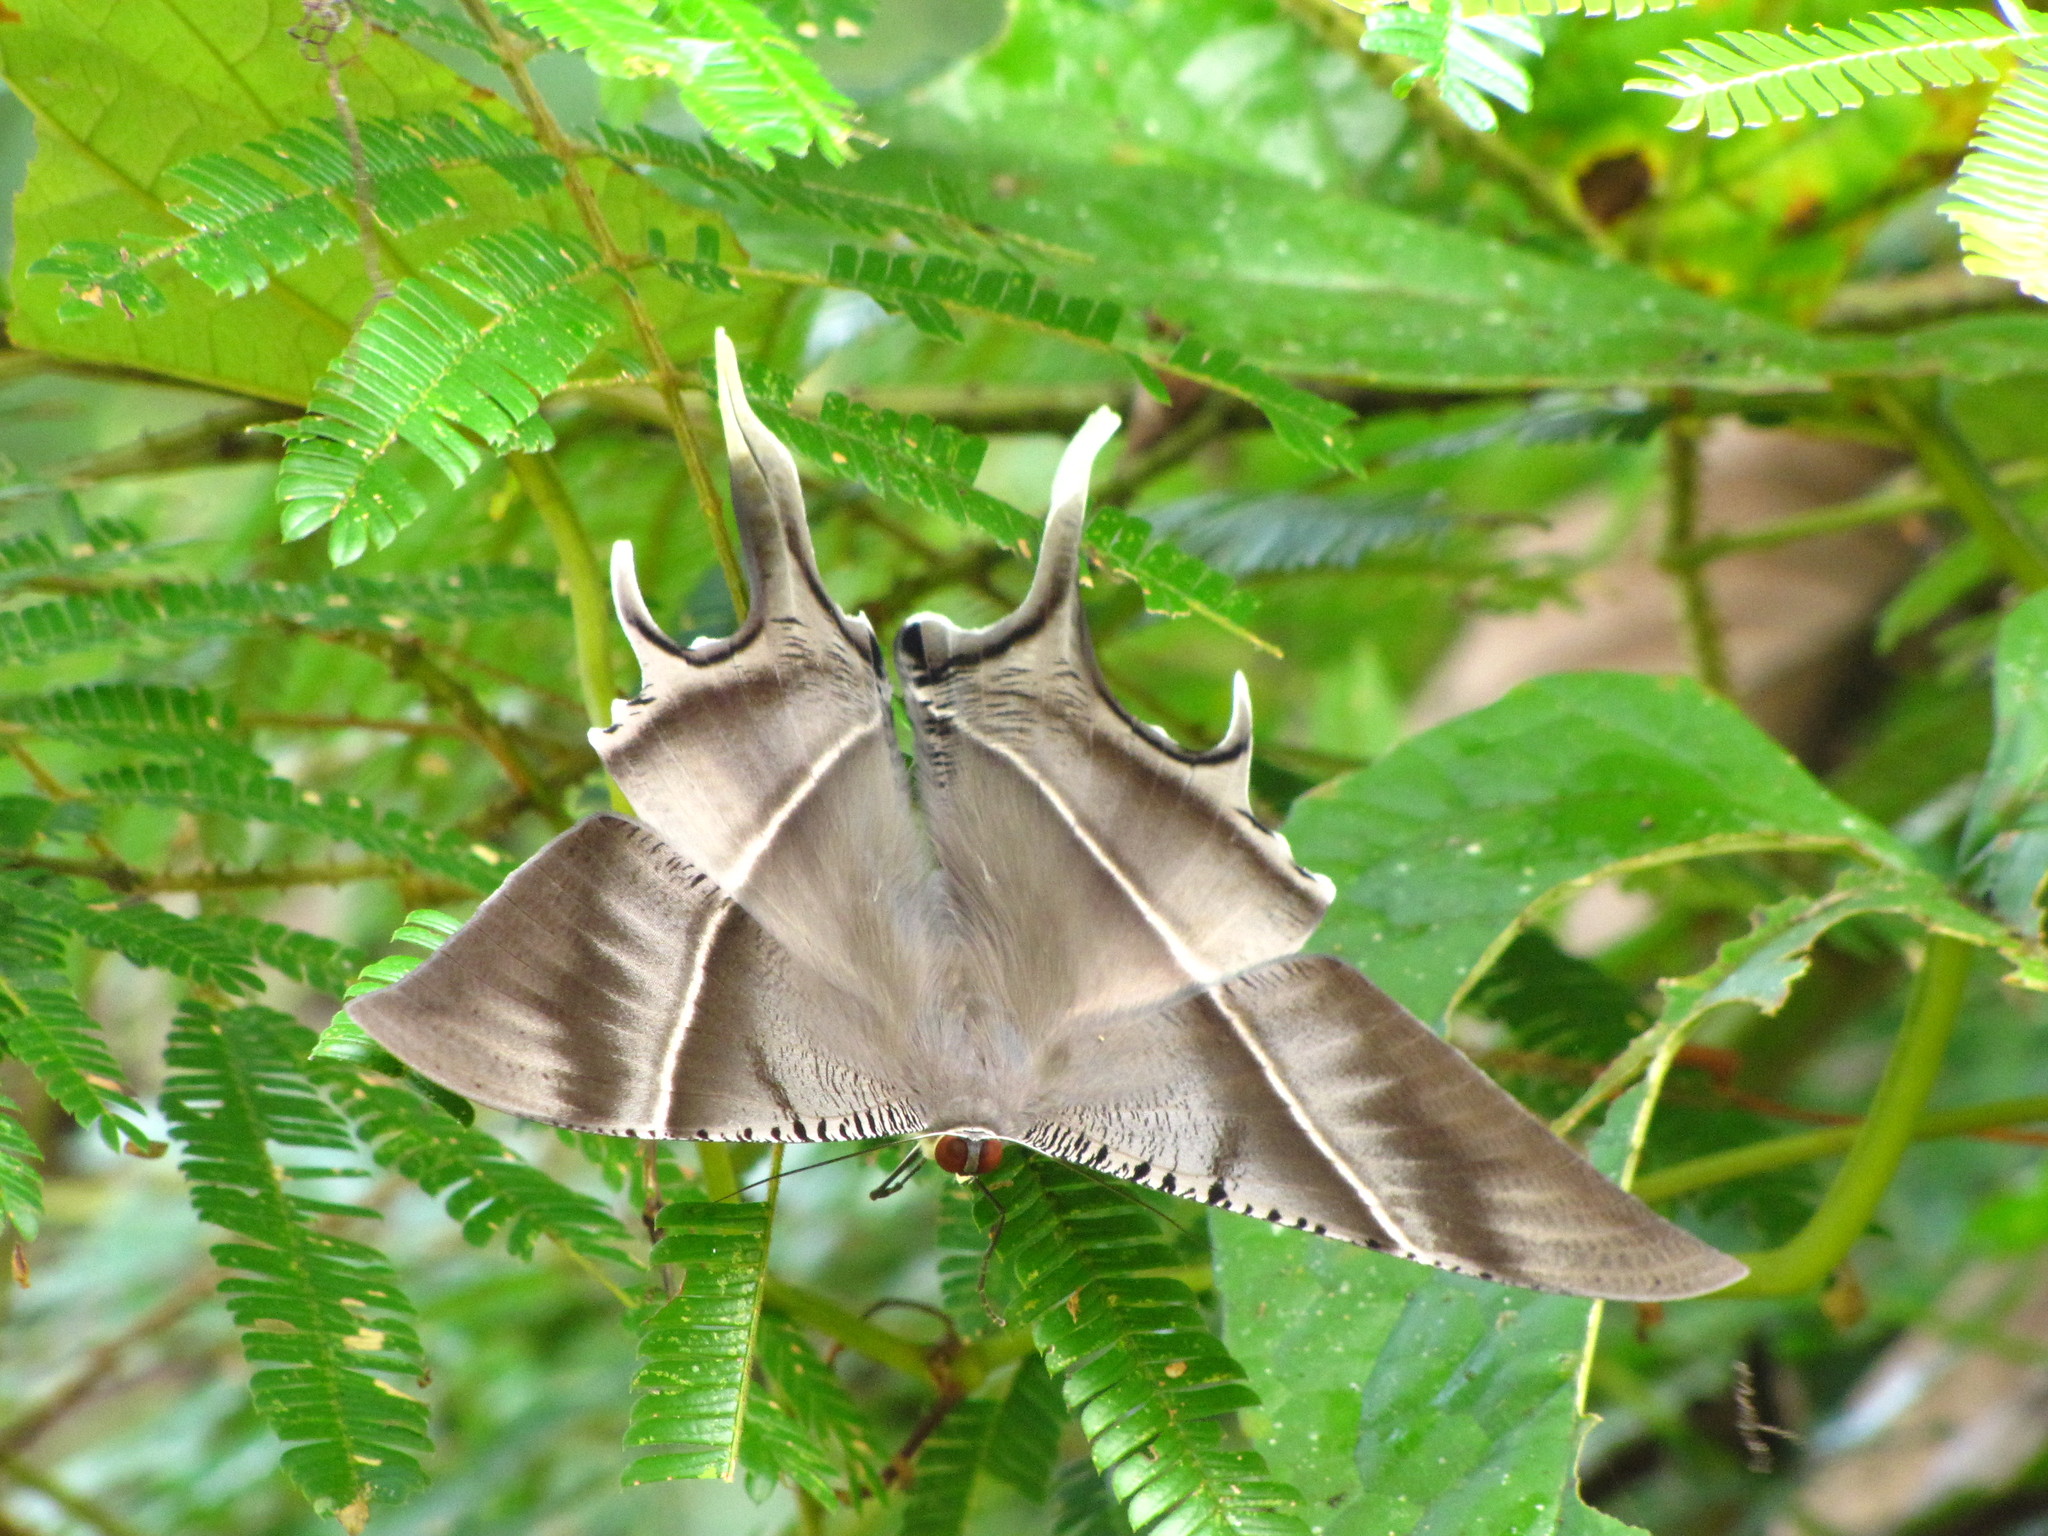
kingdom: Animalia
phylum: Arthropoda
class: Insecta
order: Lepidoptera
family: Uraniidae
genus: Lyssa
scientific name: Lyssa zampa
